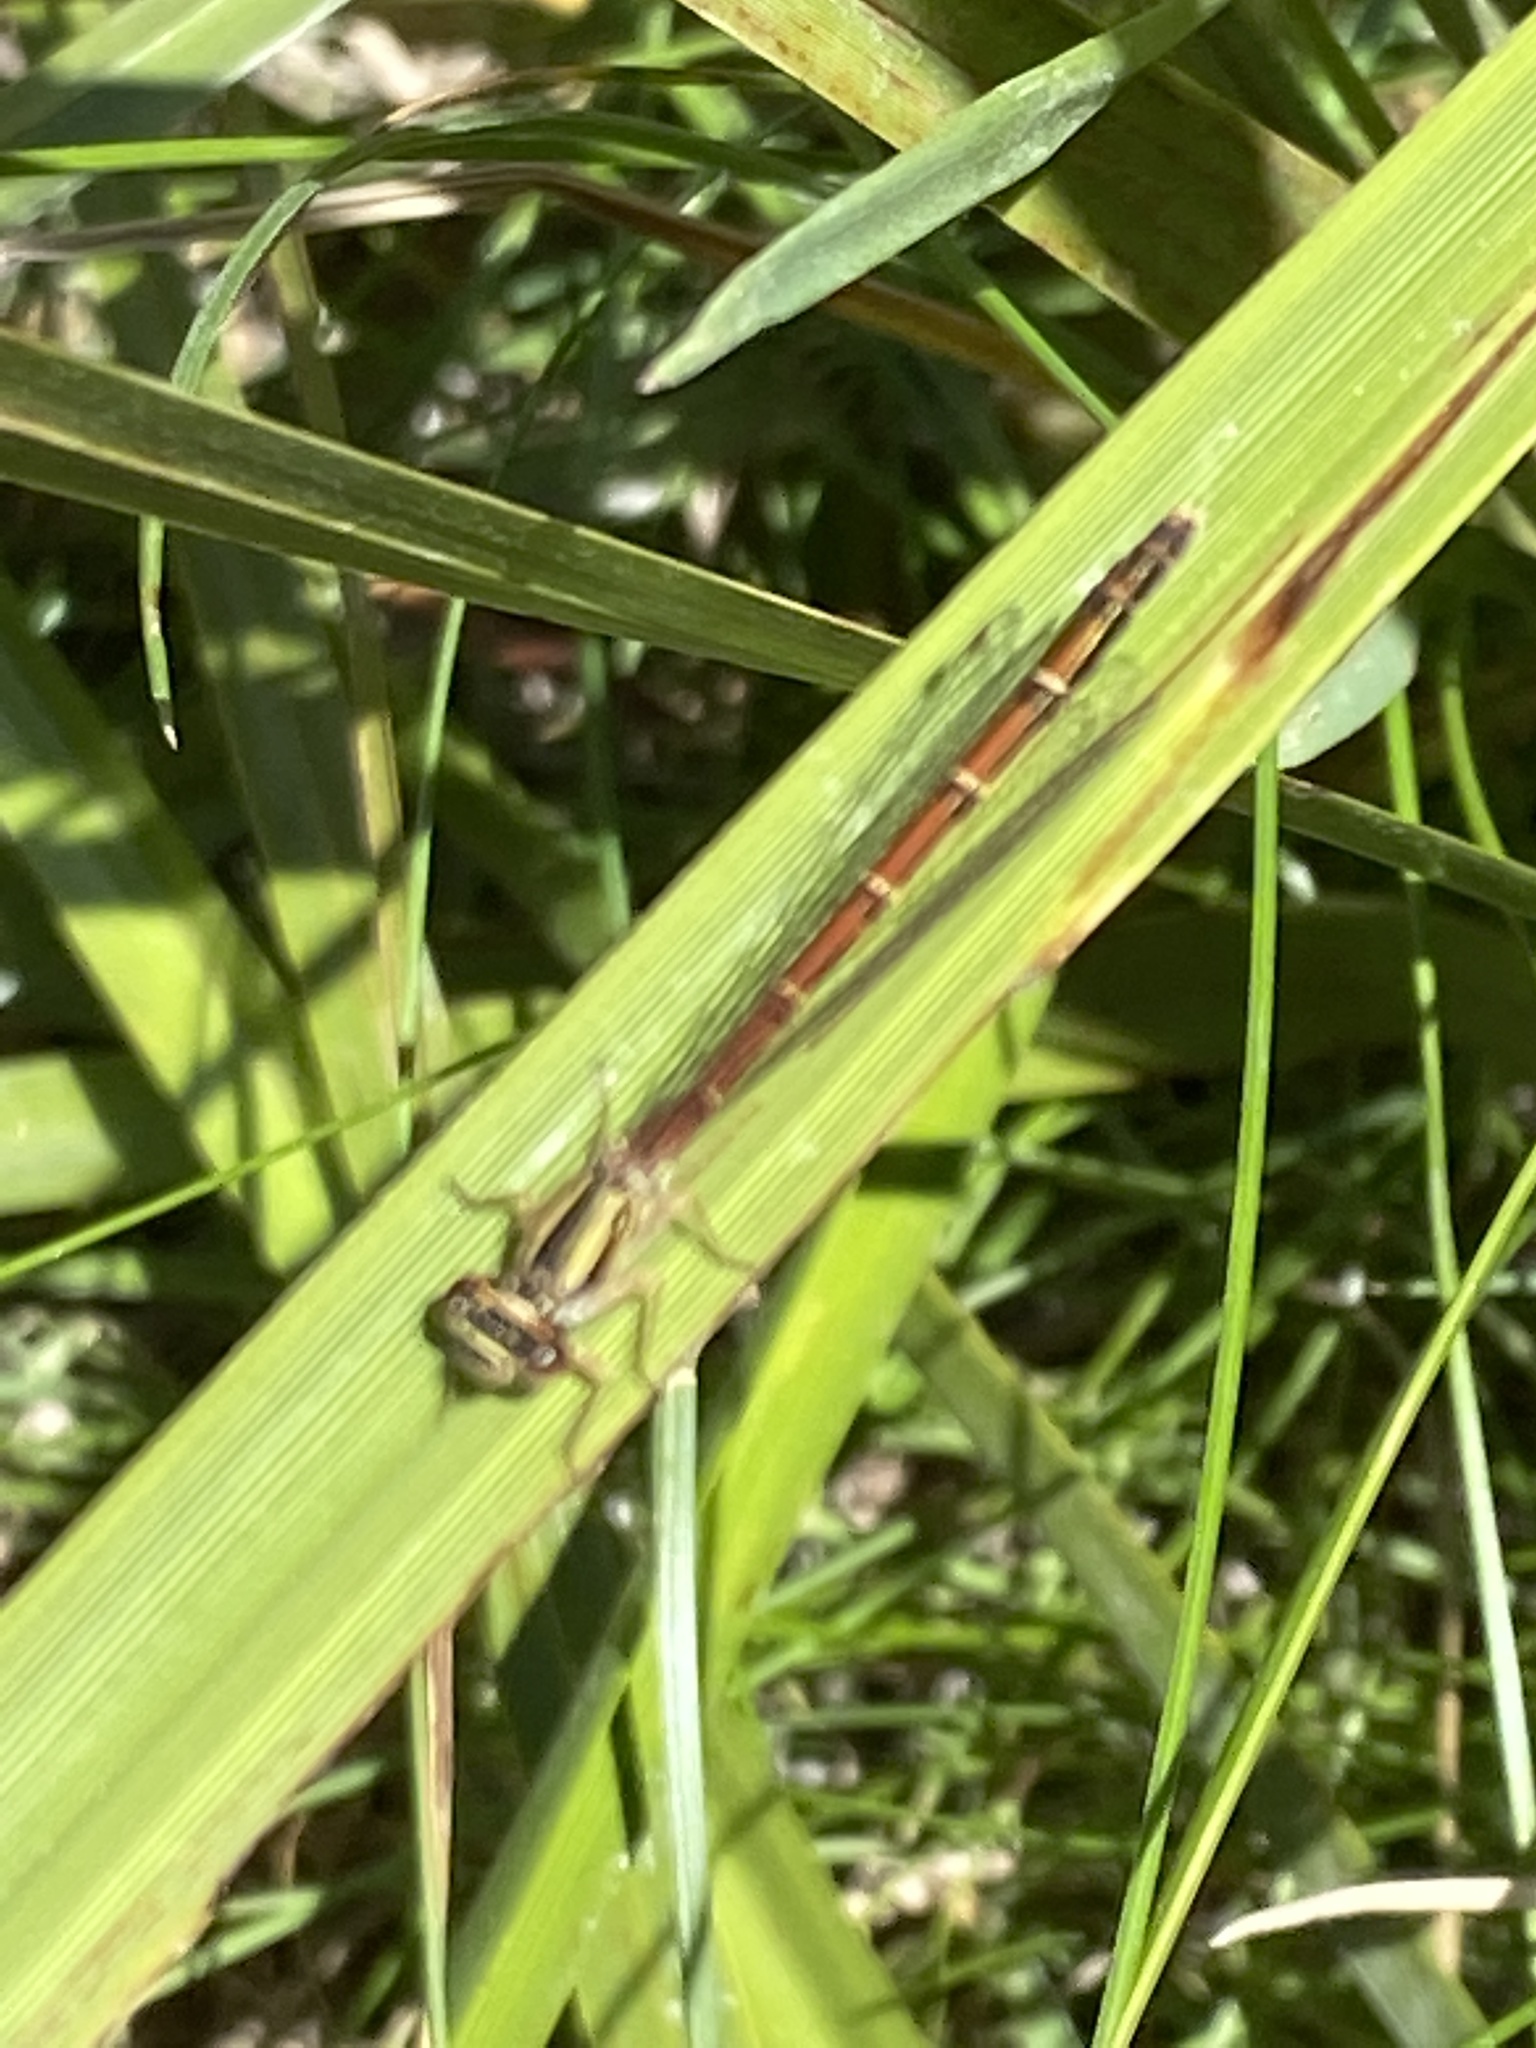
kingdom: Animalia
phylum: Arthropoda
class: Insecta
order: Odonata
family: Coenagrionidae
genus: Xanthocnemis
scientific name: Xanthocnemis zealandica
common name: Common redcoat damselfly
